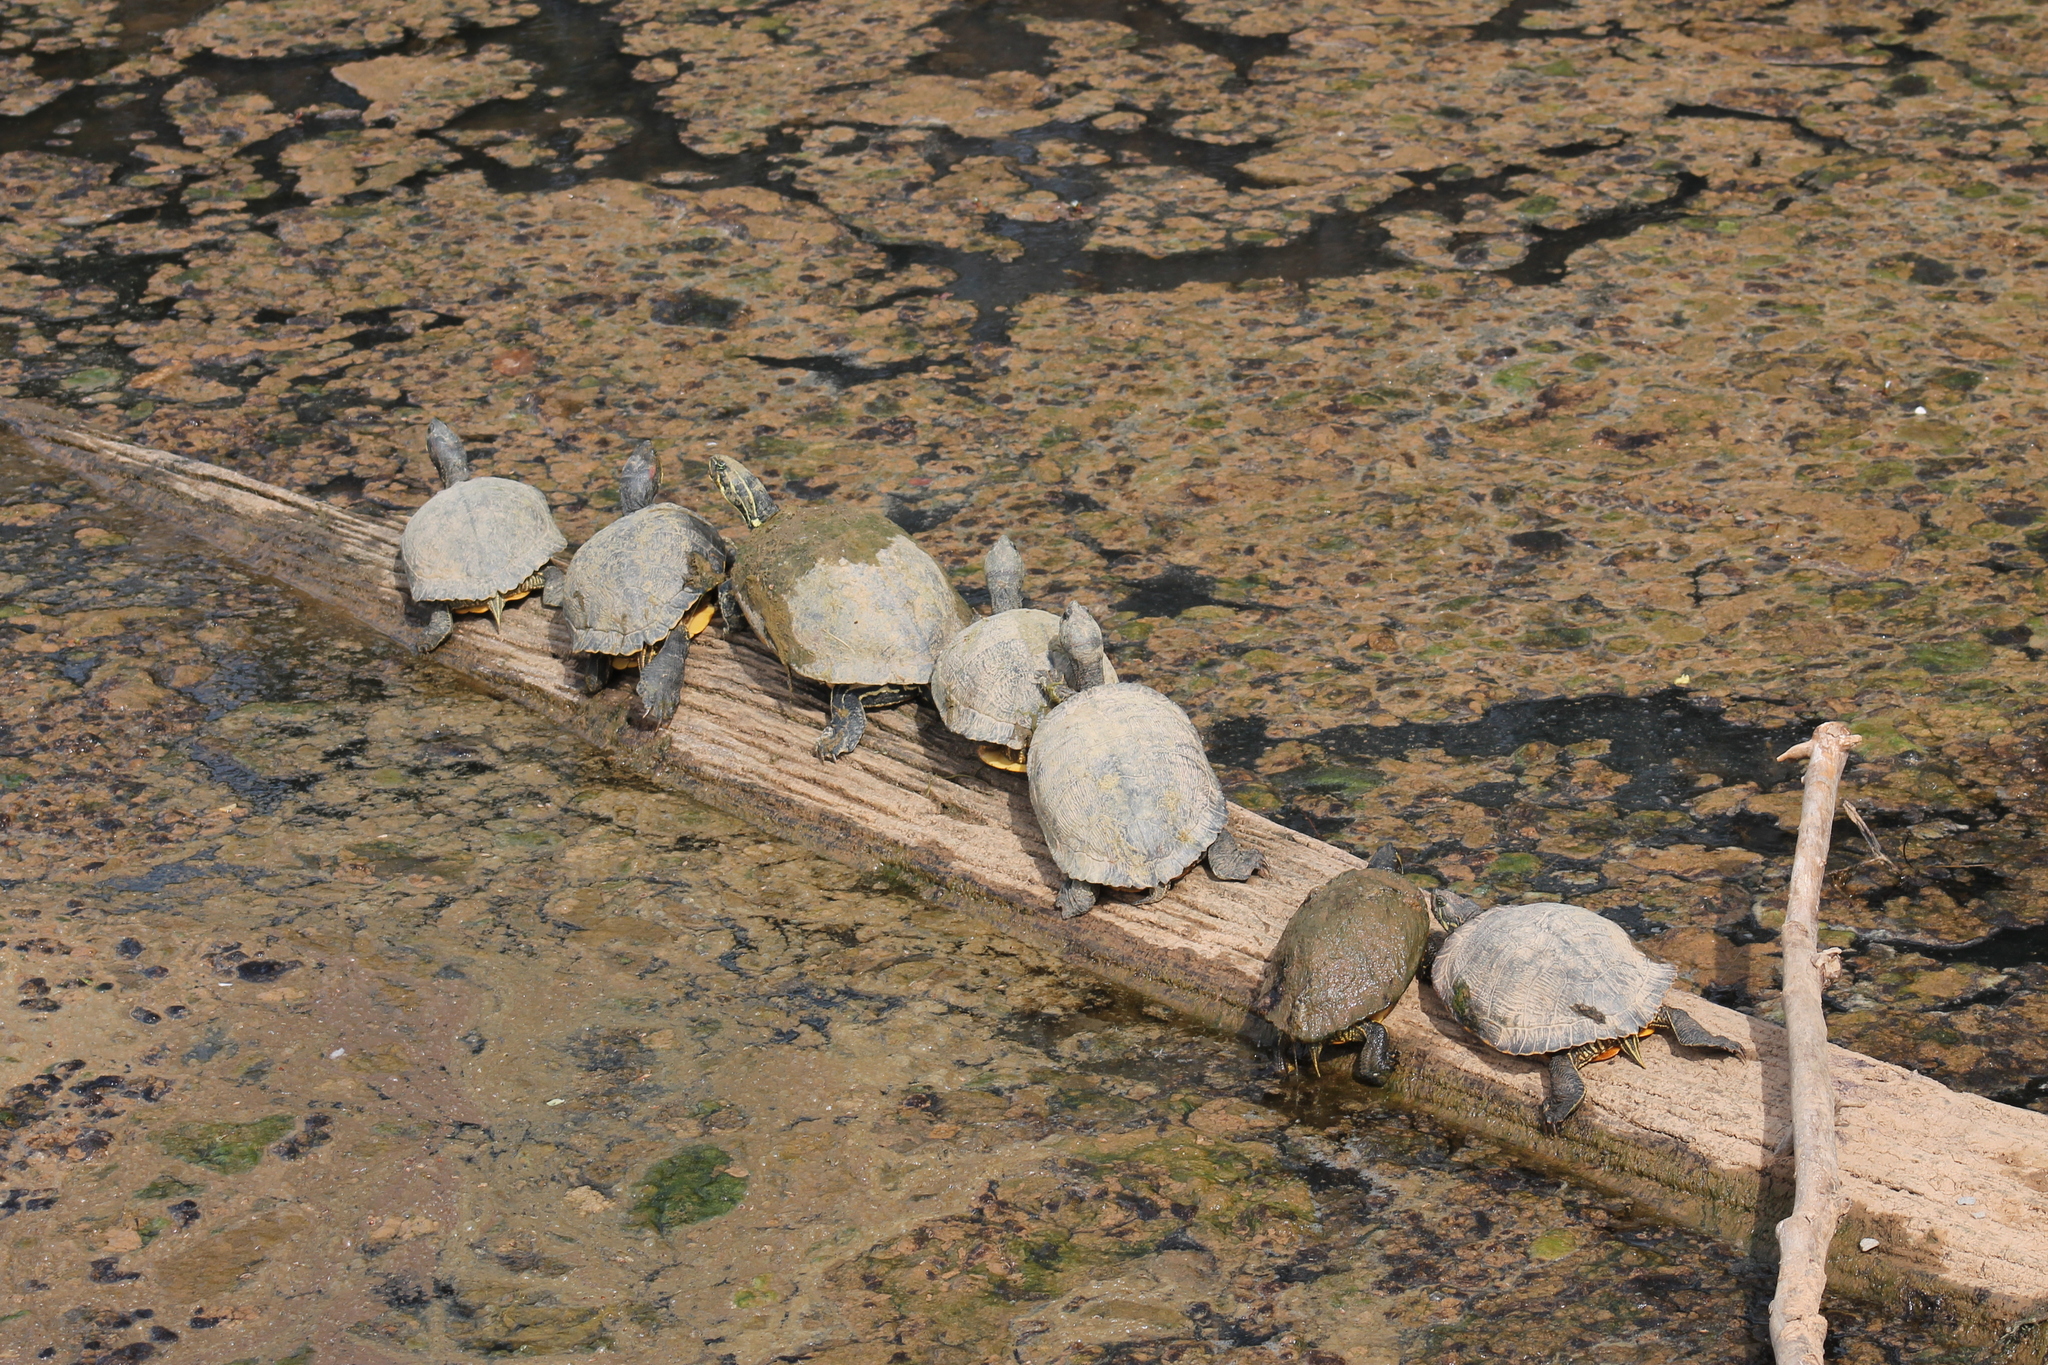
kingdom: Animalia
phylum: Chordata
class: Testudines
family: Emydidae
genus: Trachemys
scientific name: Trachemys scripta
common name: Slider
